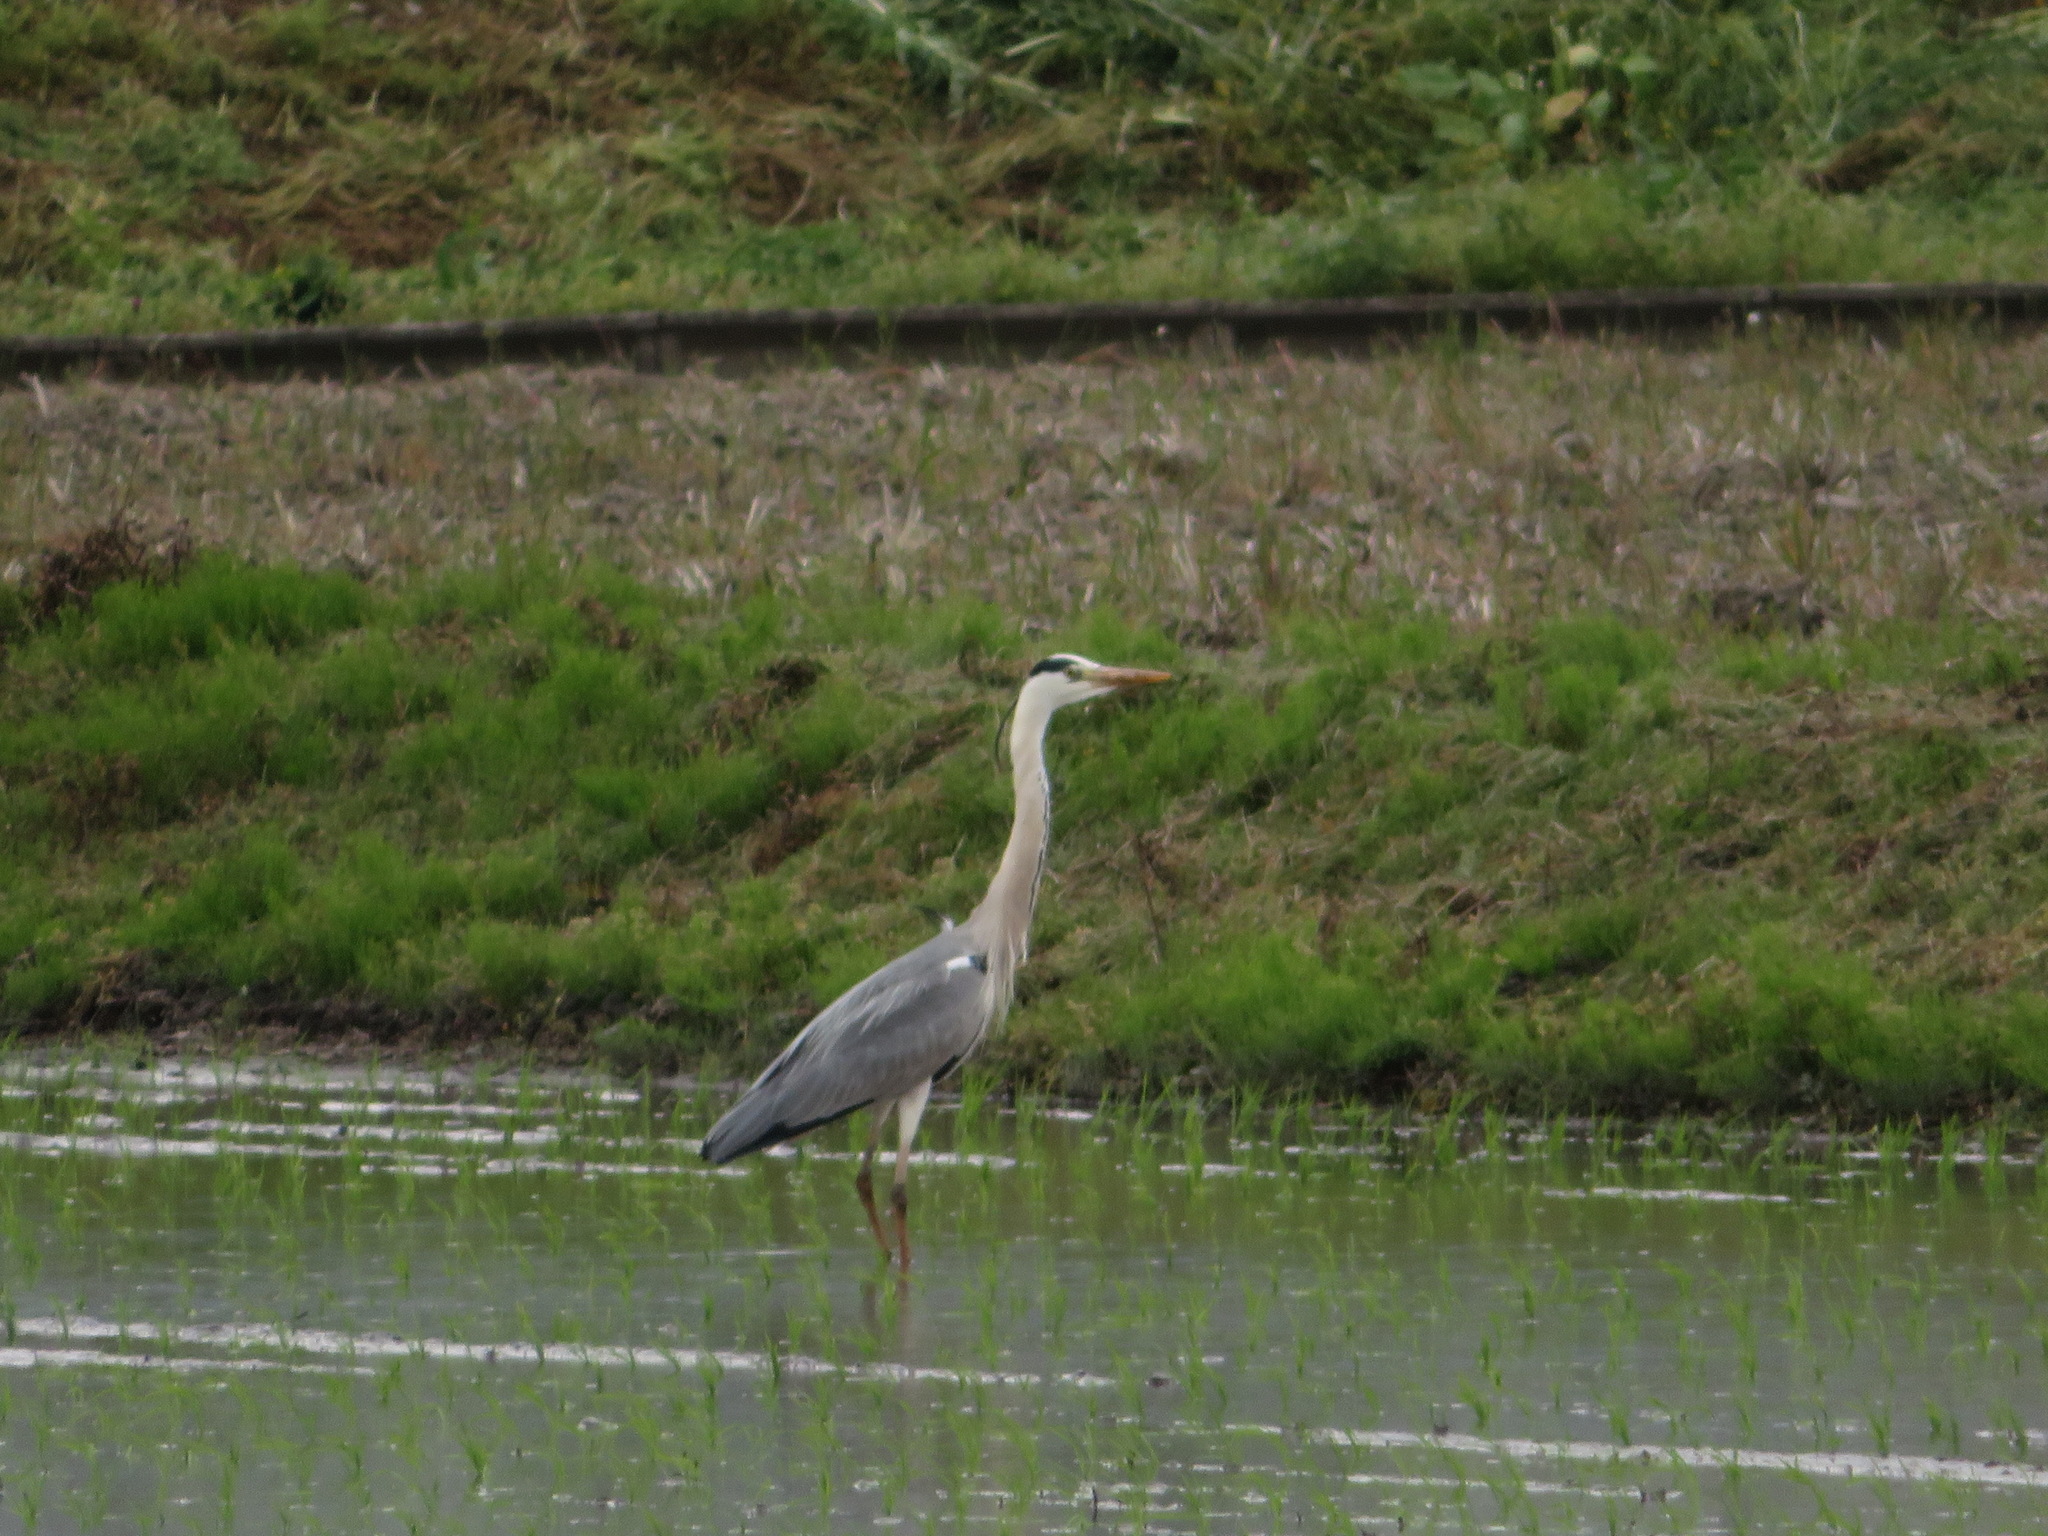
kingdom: Animalia
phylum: Chordata
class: Aves
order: Pelecaniformes
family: Ardeidae
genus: Ardea
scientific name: Ardea cinerea
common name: Grey heron
